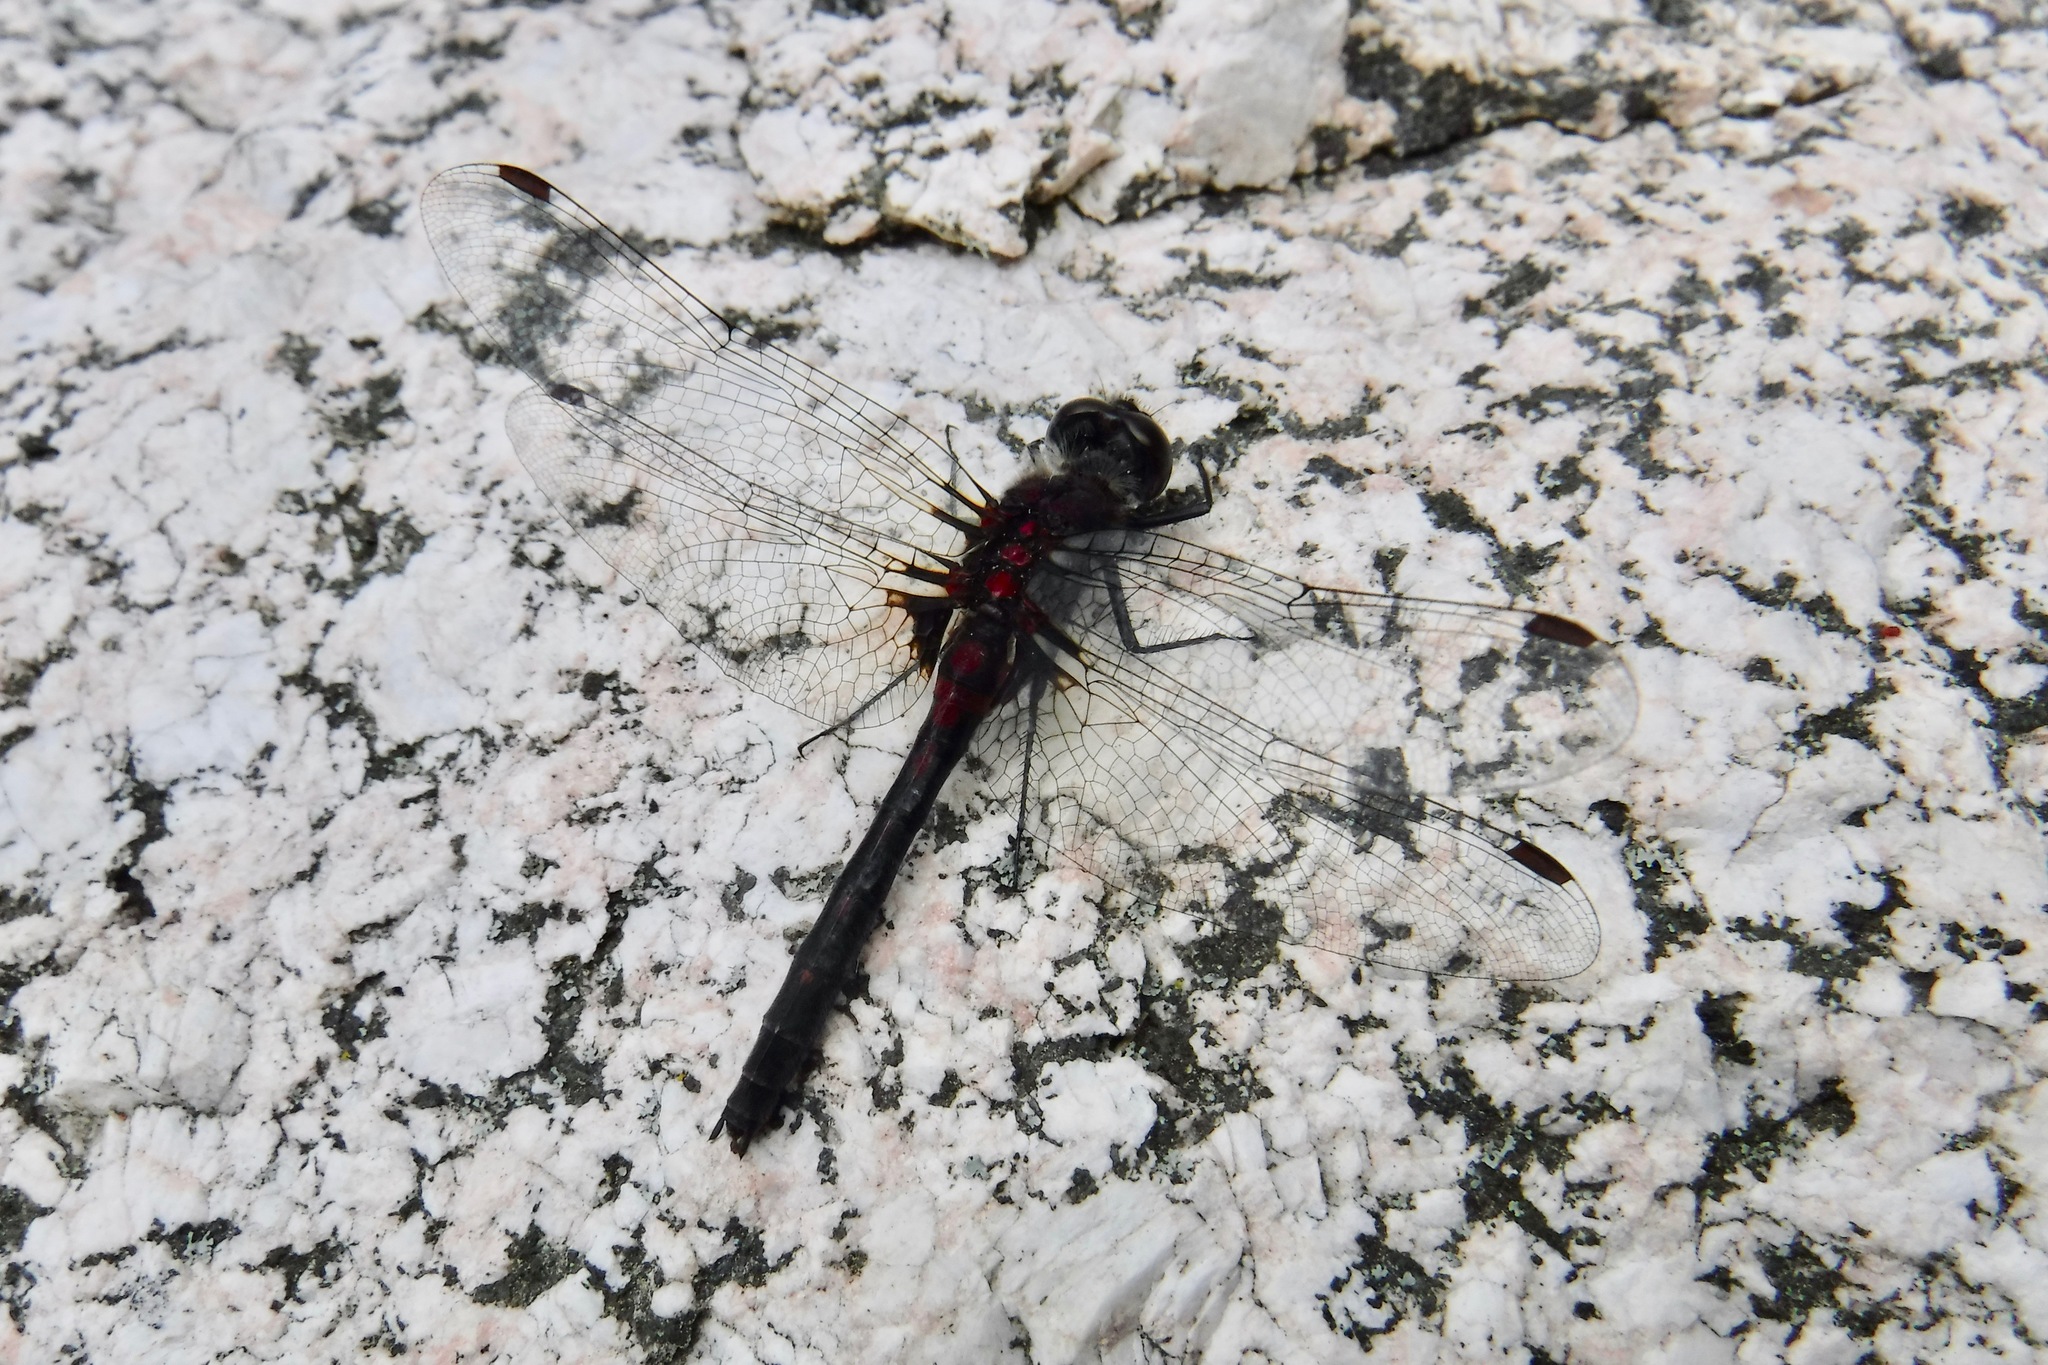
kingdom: Animalia
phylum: Arthropoda
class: Insecta
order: Odonata
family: Libellulidae
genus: Leucorrhinia
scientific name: Leucorrhinia glacialis
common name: Crimson-ringed whiteface
